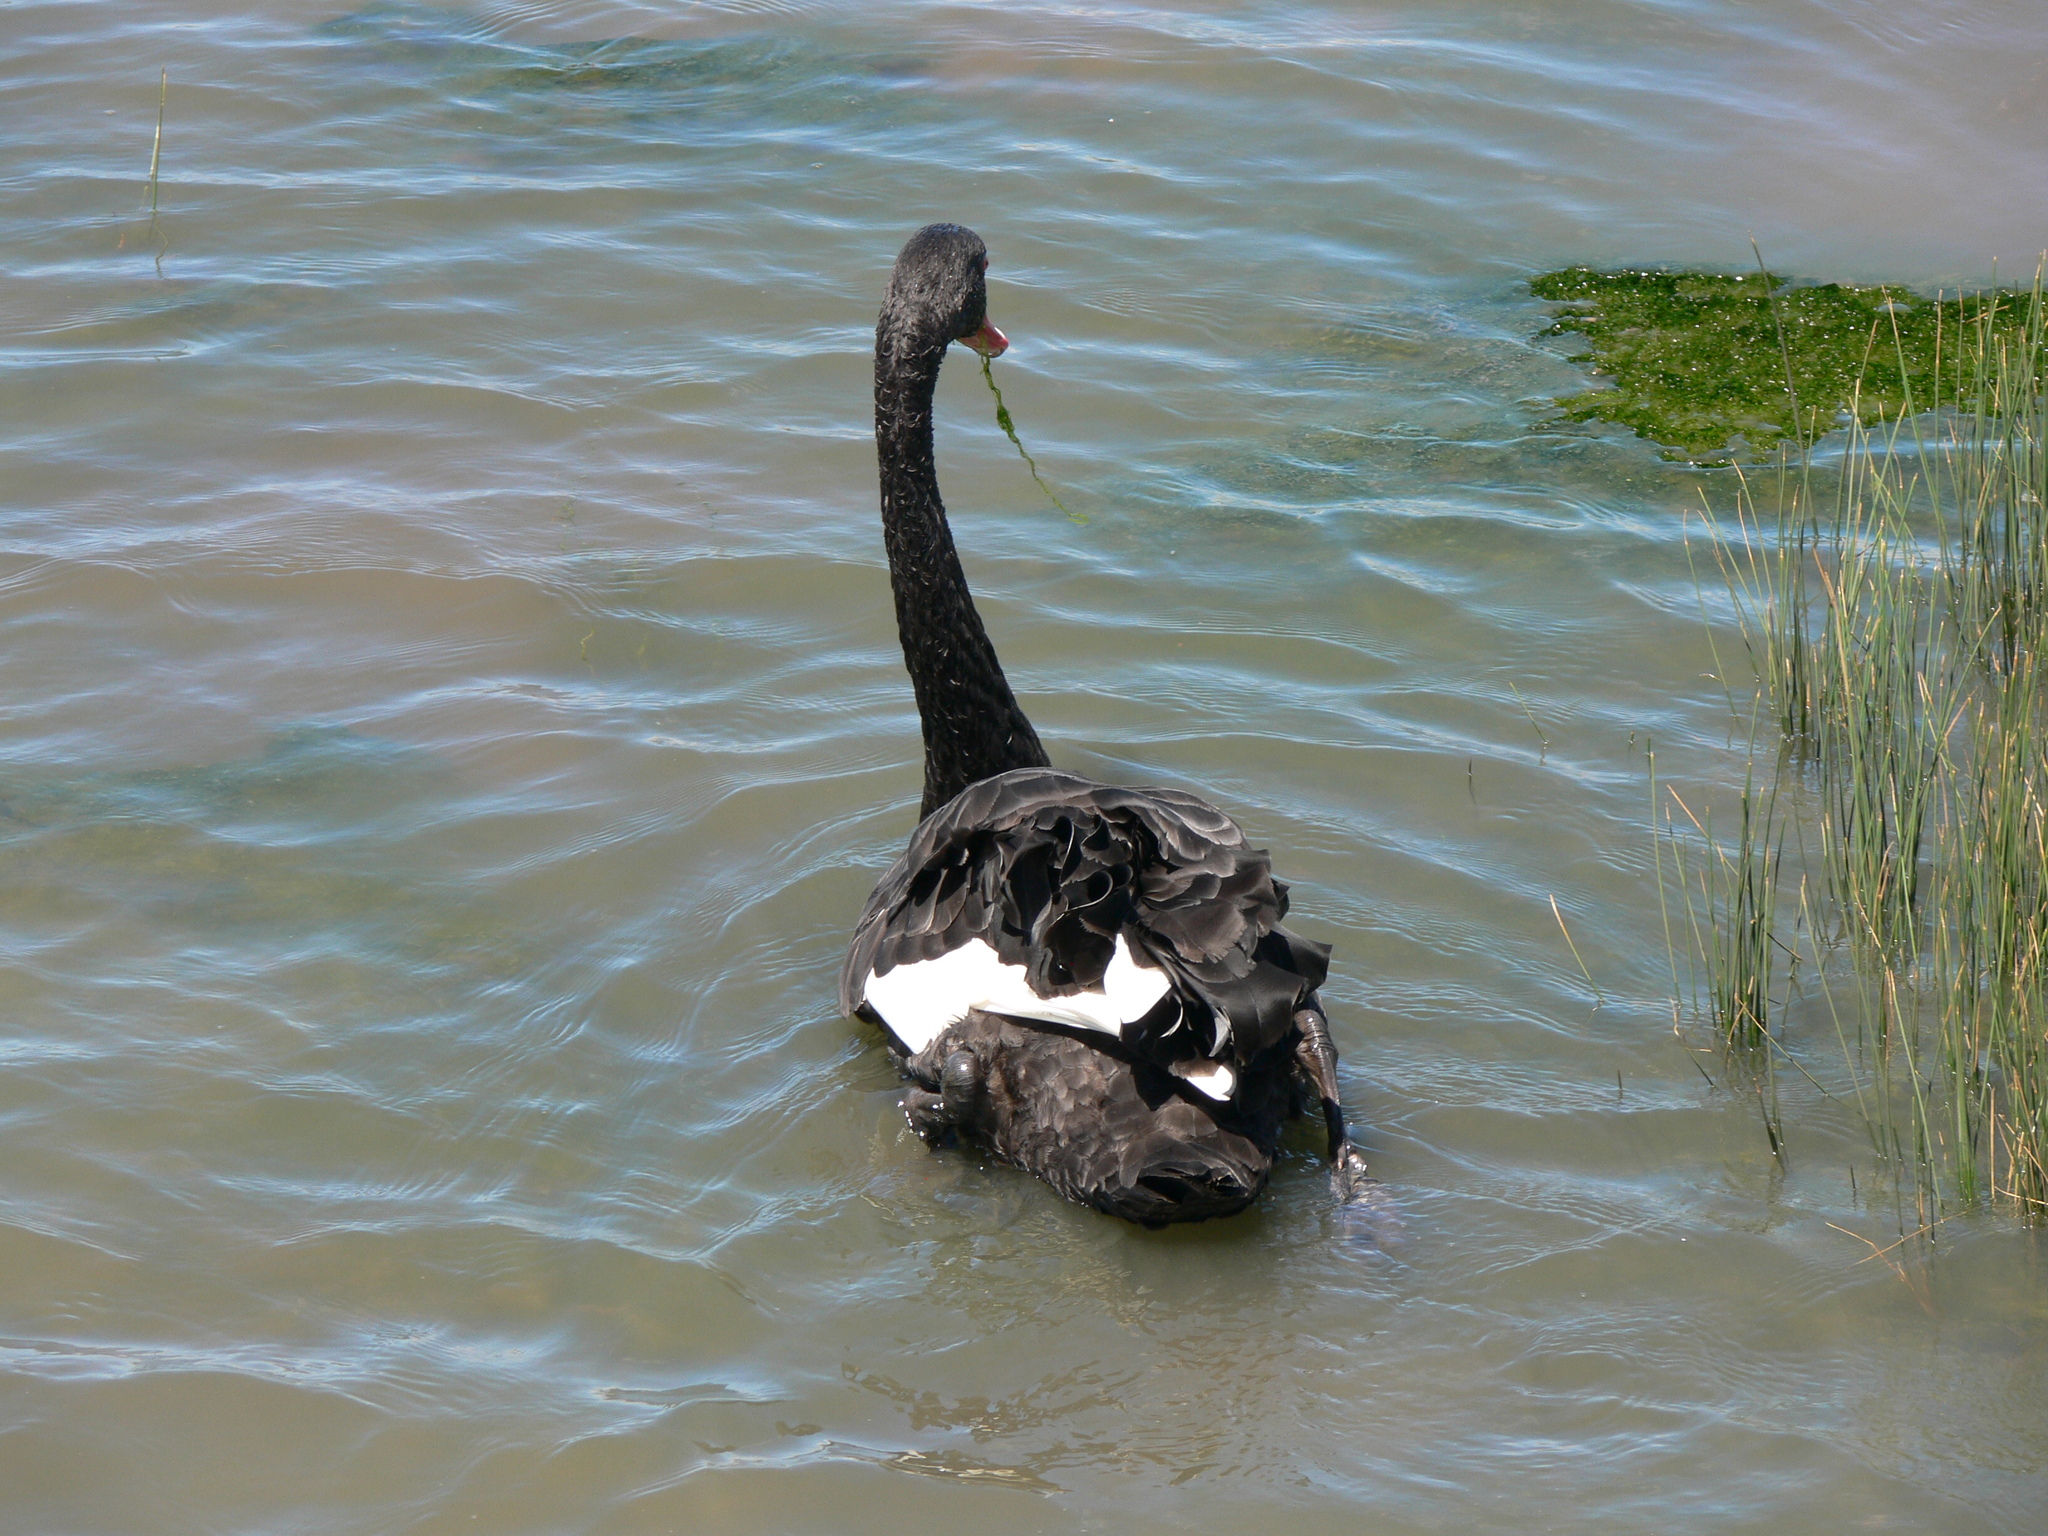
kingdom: Animalia
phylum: Chordata
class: Aves
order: Anseriformes
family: Anatidae
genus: Cygnus
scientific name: Cygnus atratus
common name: Black swan
